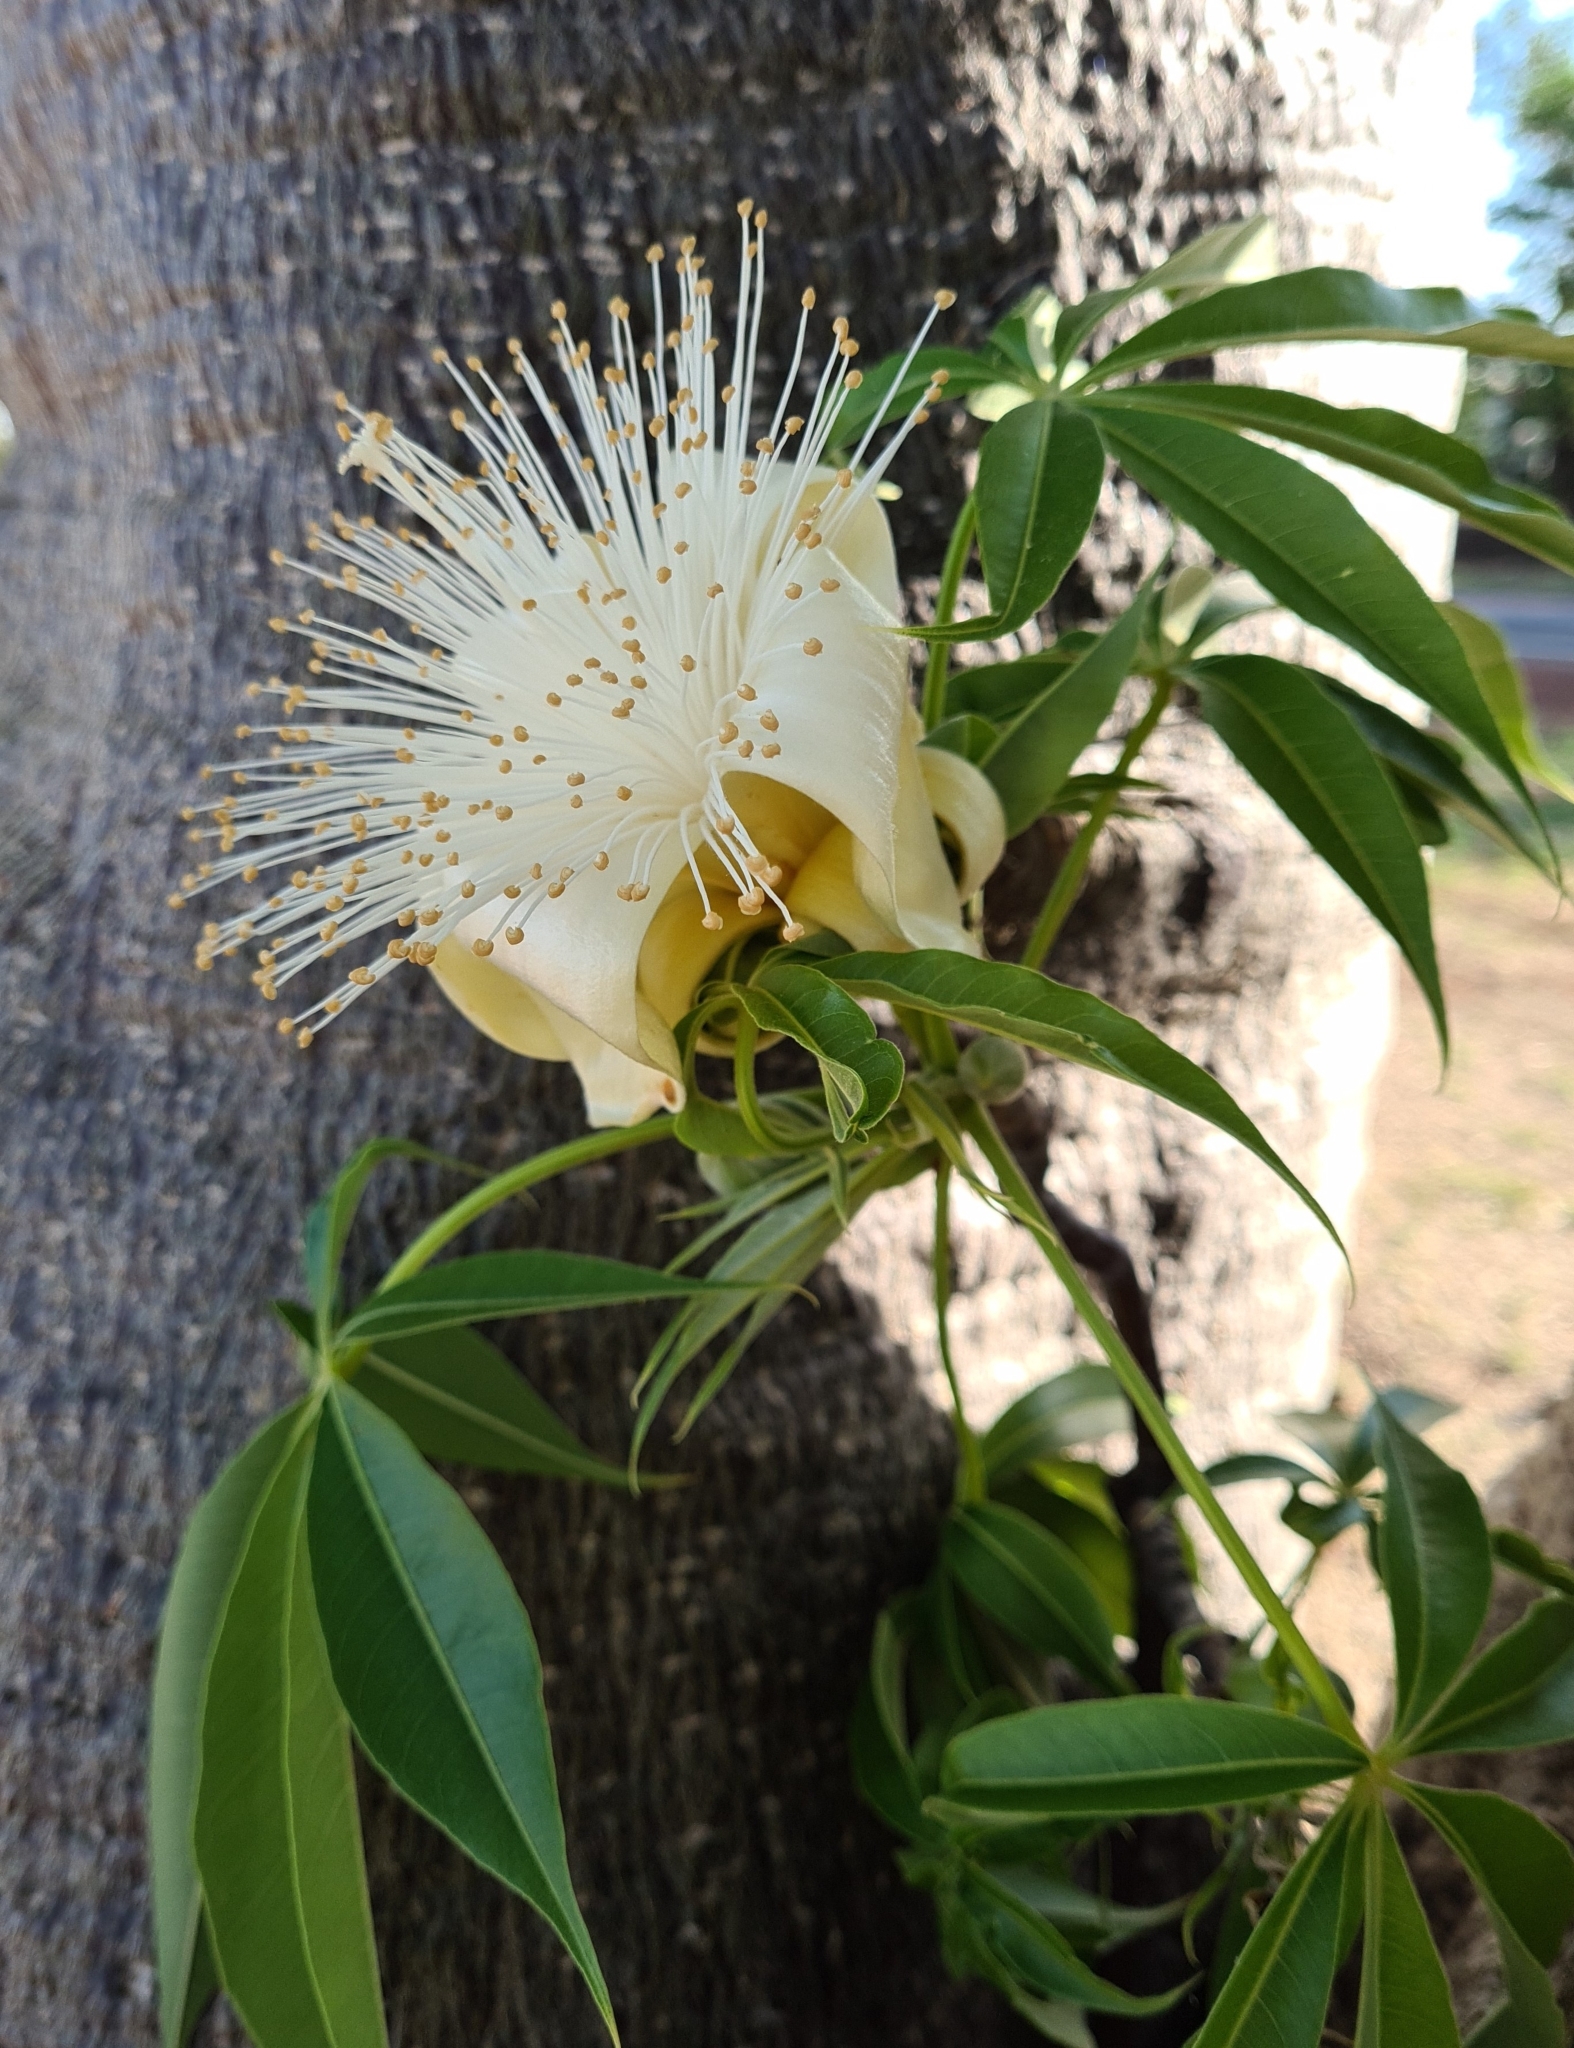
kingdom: Plantae
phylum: Tracheophyta
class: Magnoliopsida
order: Malvales
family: Malvaceae
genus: Adansonia
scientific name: Adansonia gregorii
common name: Australian baobab
